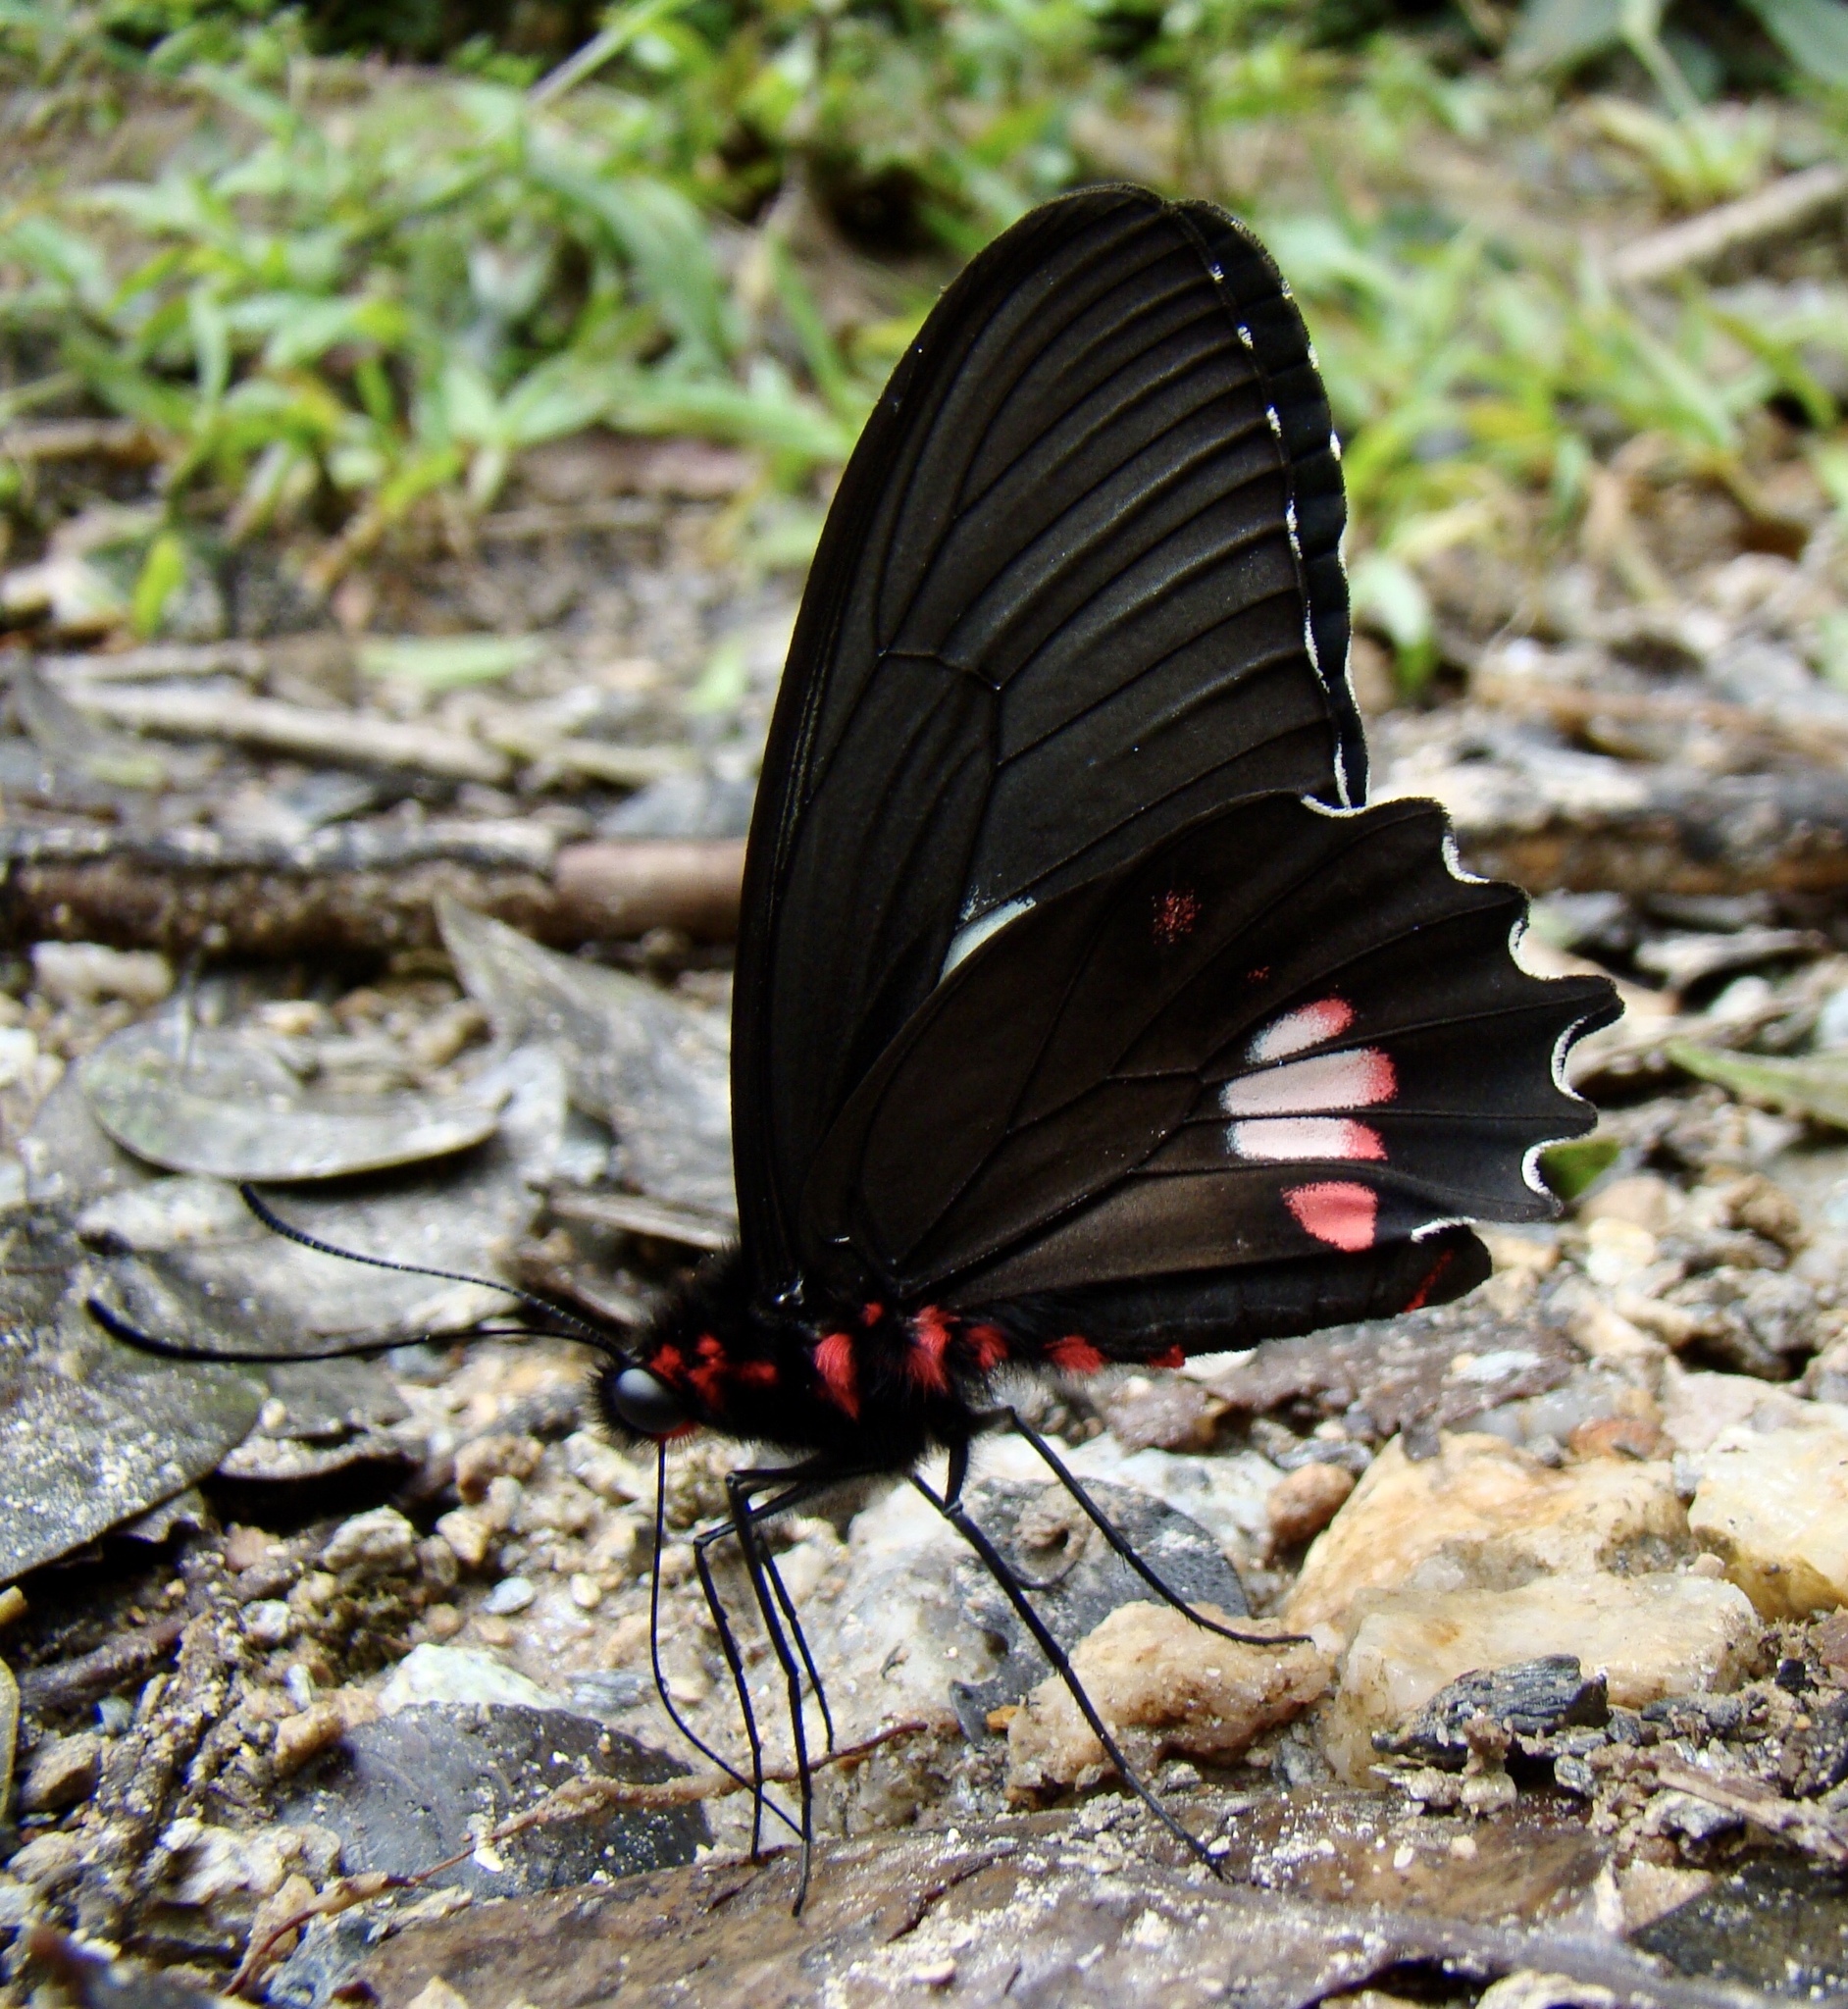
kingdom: Animalia
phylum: Arthropoda
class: Insecta
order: Lepidoptera
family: Papilionidae
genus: Parides
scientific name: Parides anchises
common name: Cattle heart
